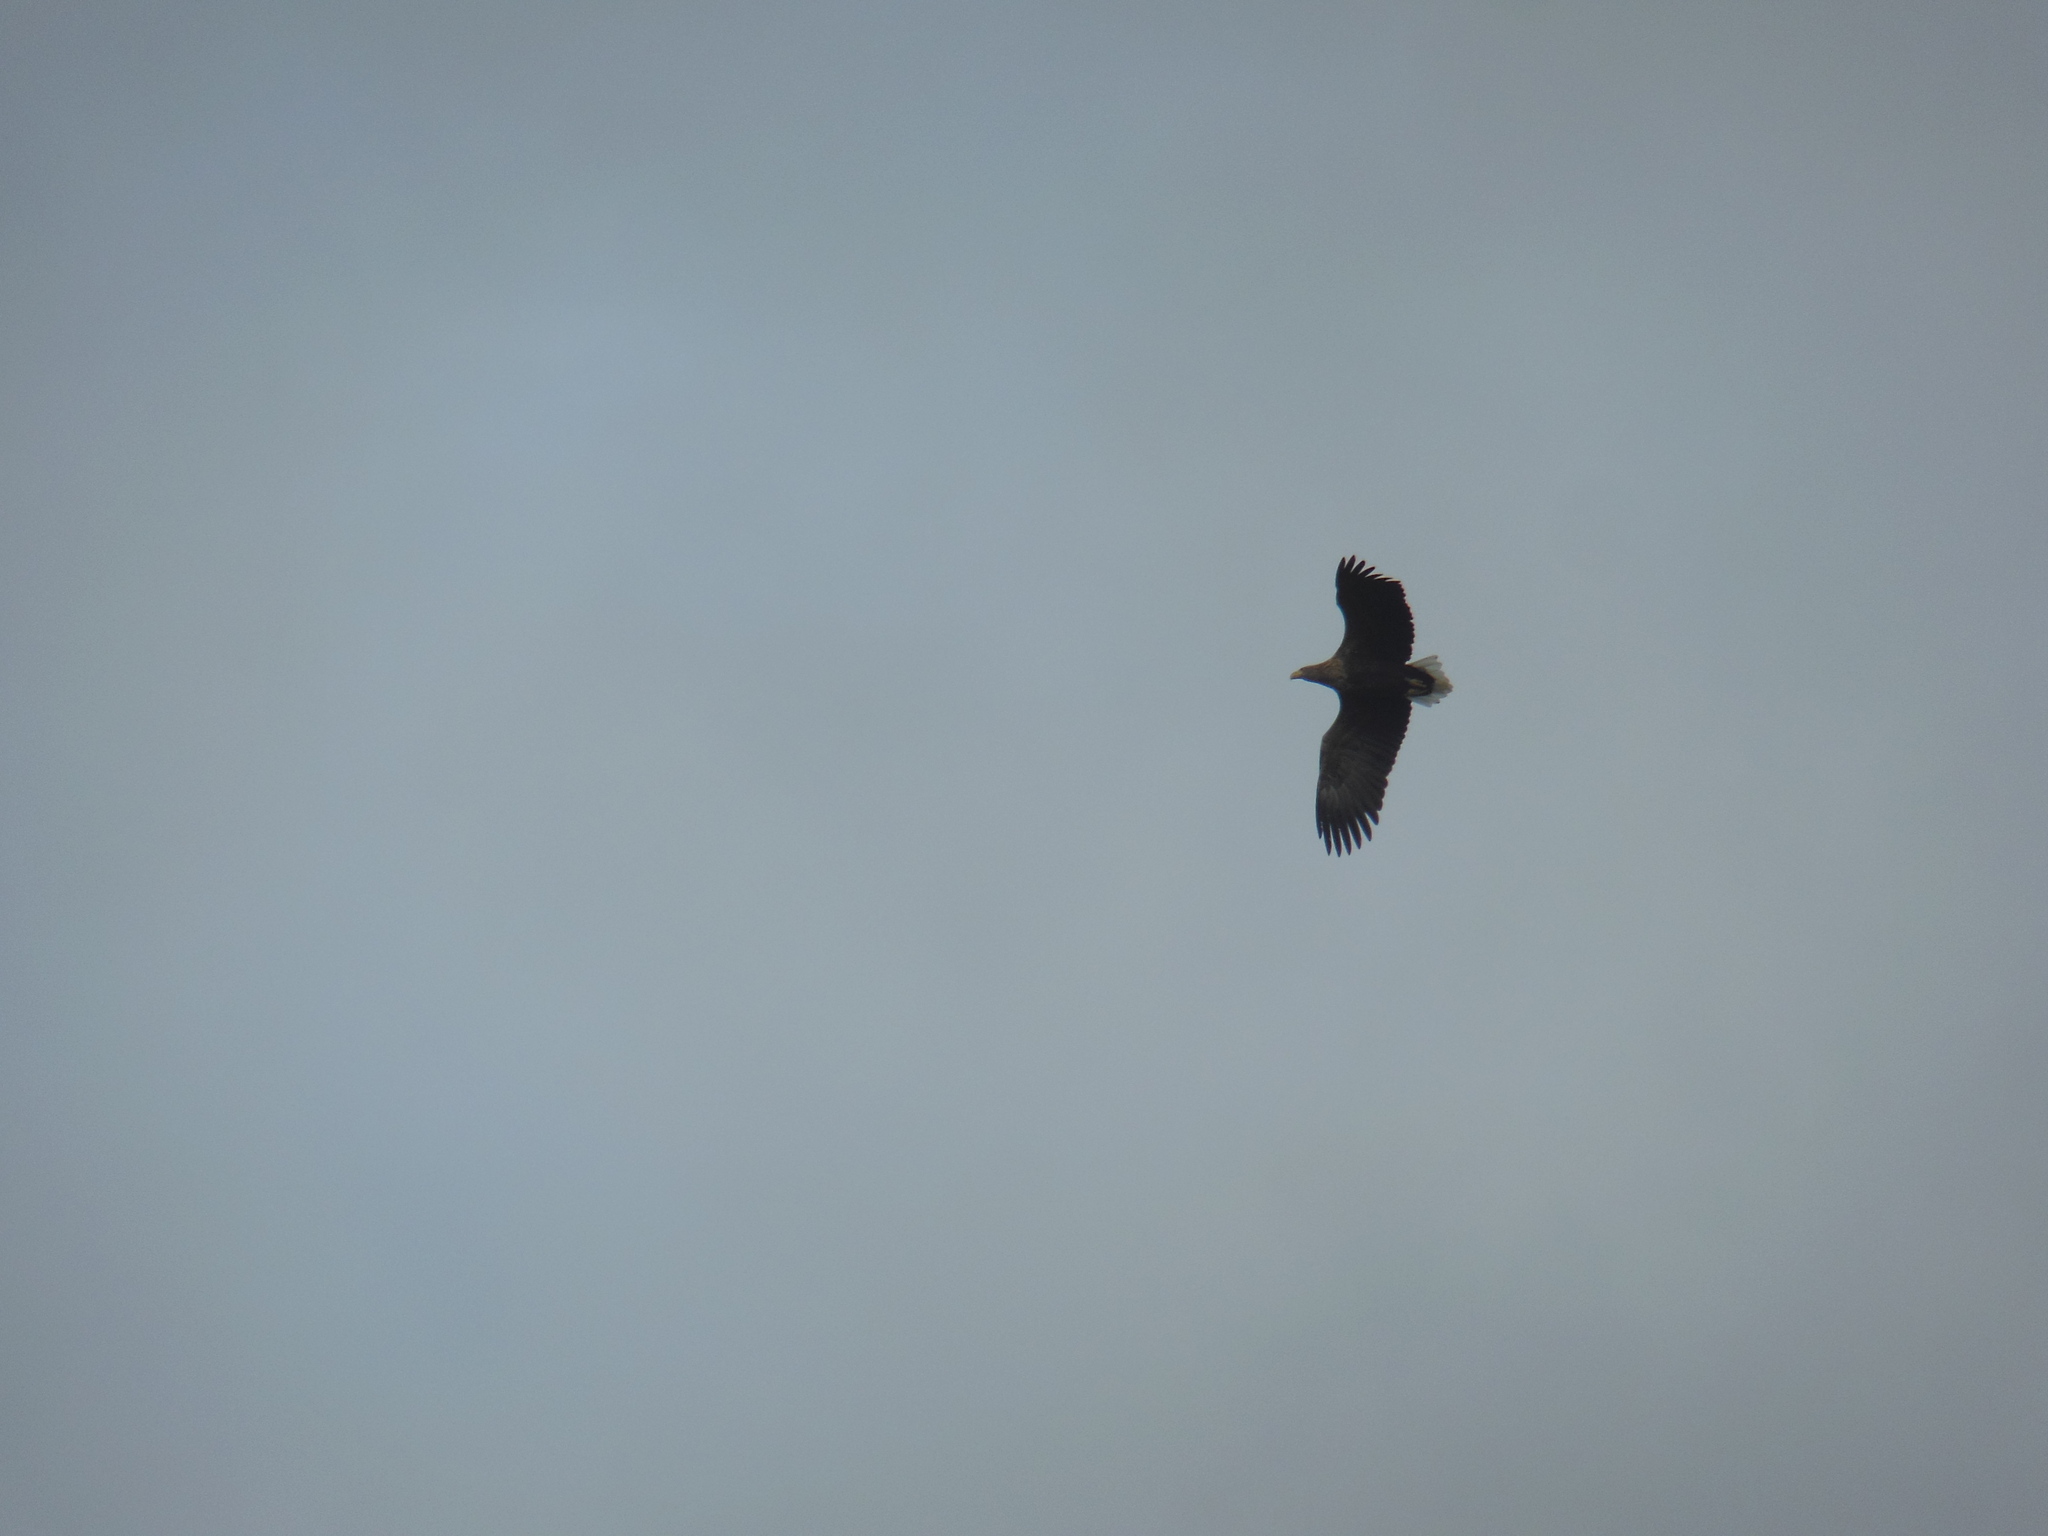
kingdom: Animalia
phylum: Chordata
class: Aves
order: Accipitriformes
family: Accipitridae
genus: Haliaeetus
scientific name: Haliaeetus albicilla
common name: White-tailed eagle
